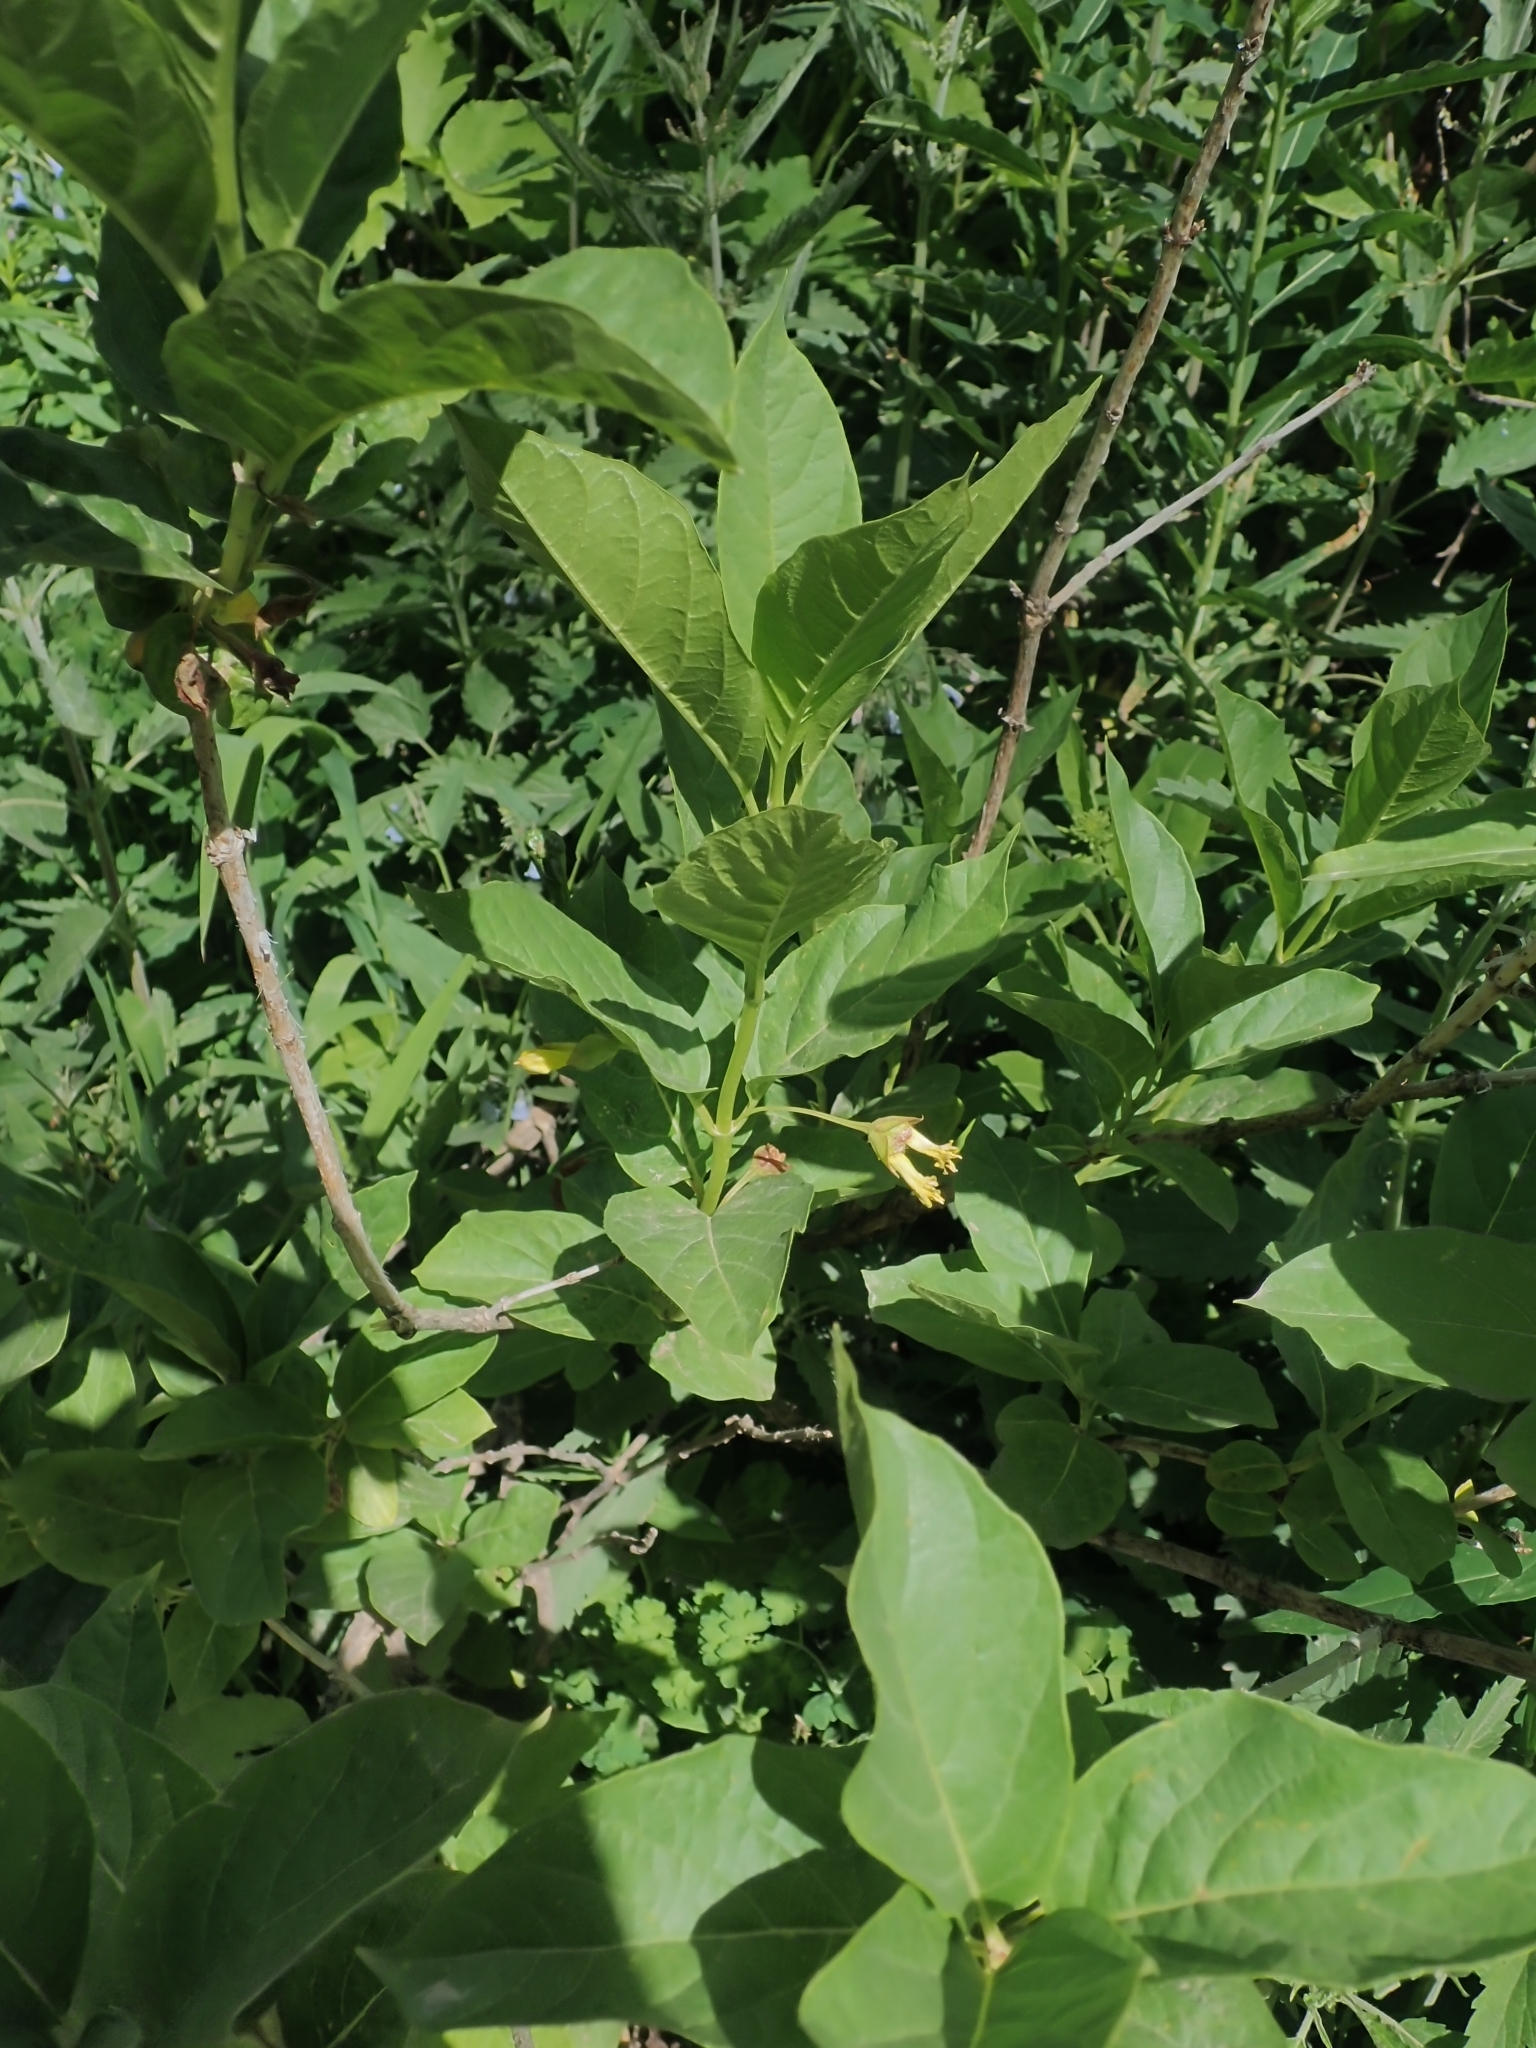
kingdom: Plantae
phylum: Tracheophyta
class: Magnoliopsida
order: Dipsacales
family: Caprifoliaceae
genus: Lonicera
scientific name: Lonicera involucrata
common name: Californian honeysuckle
